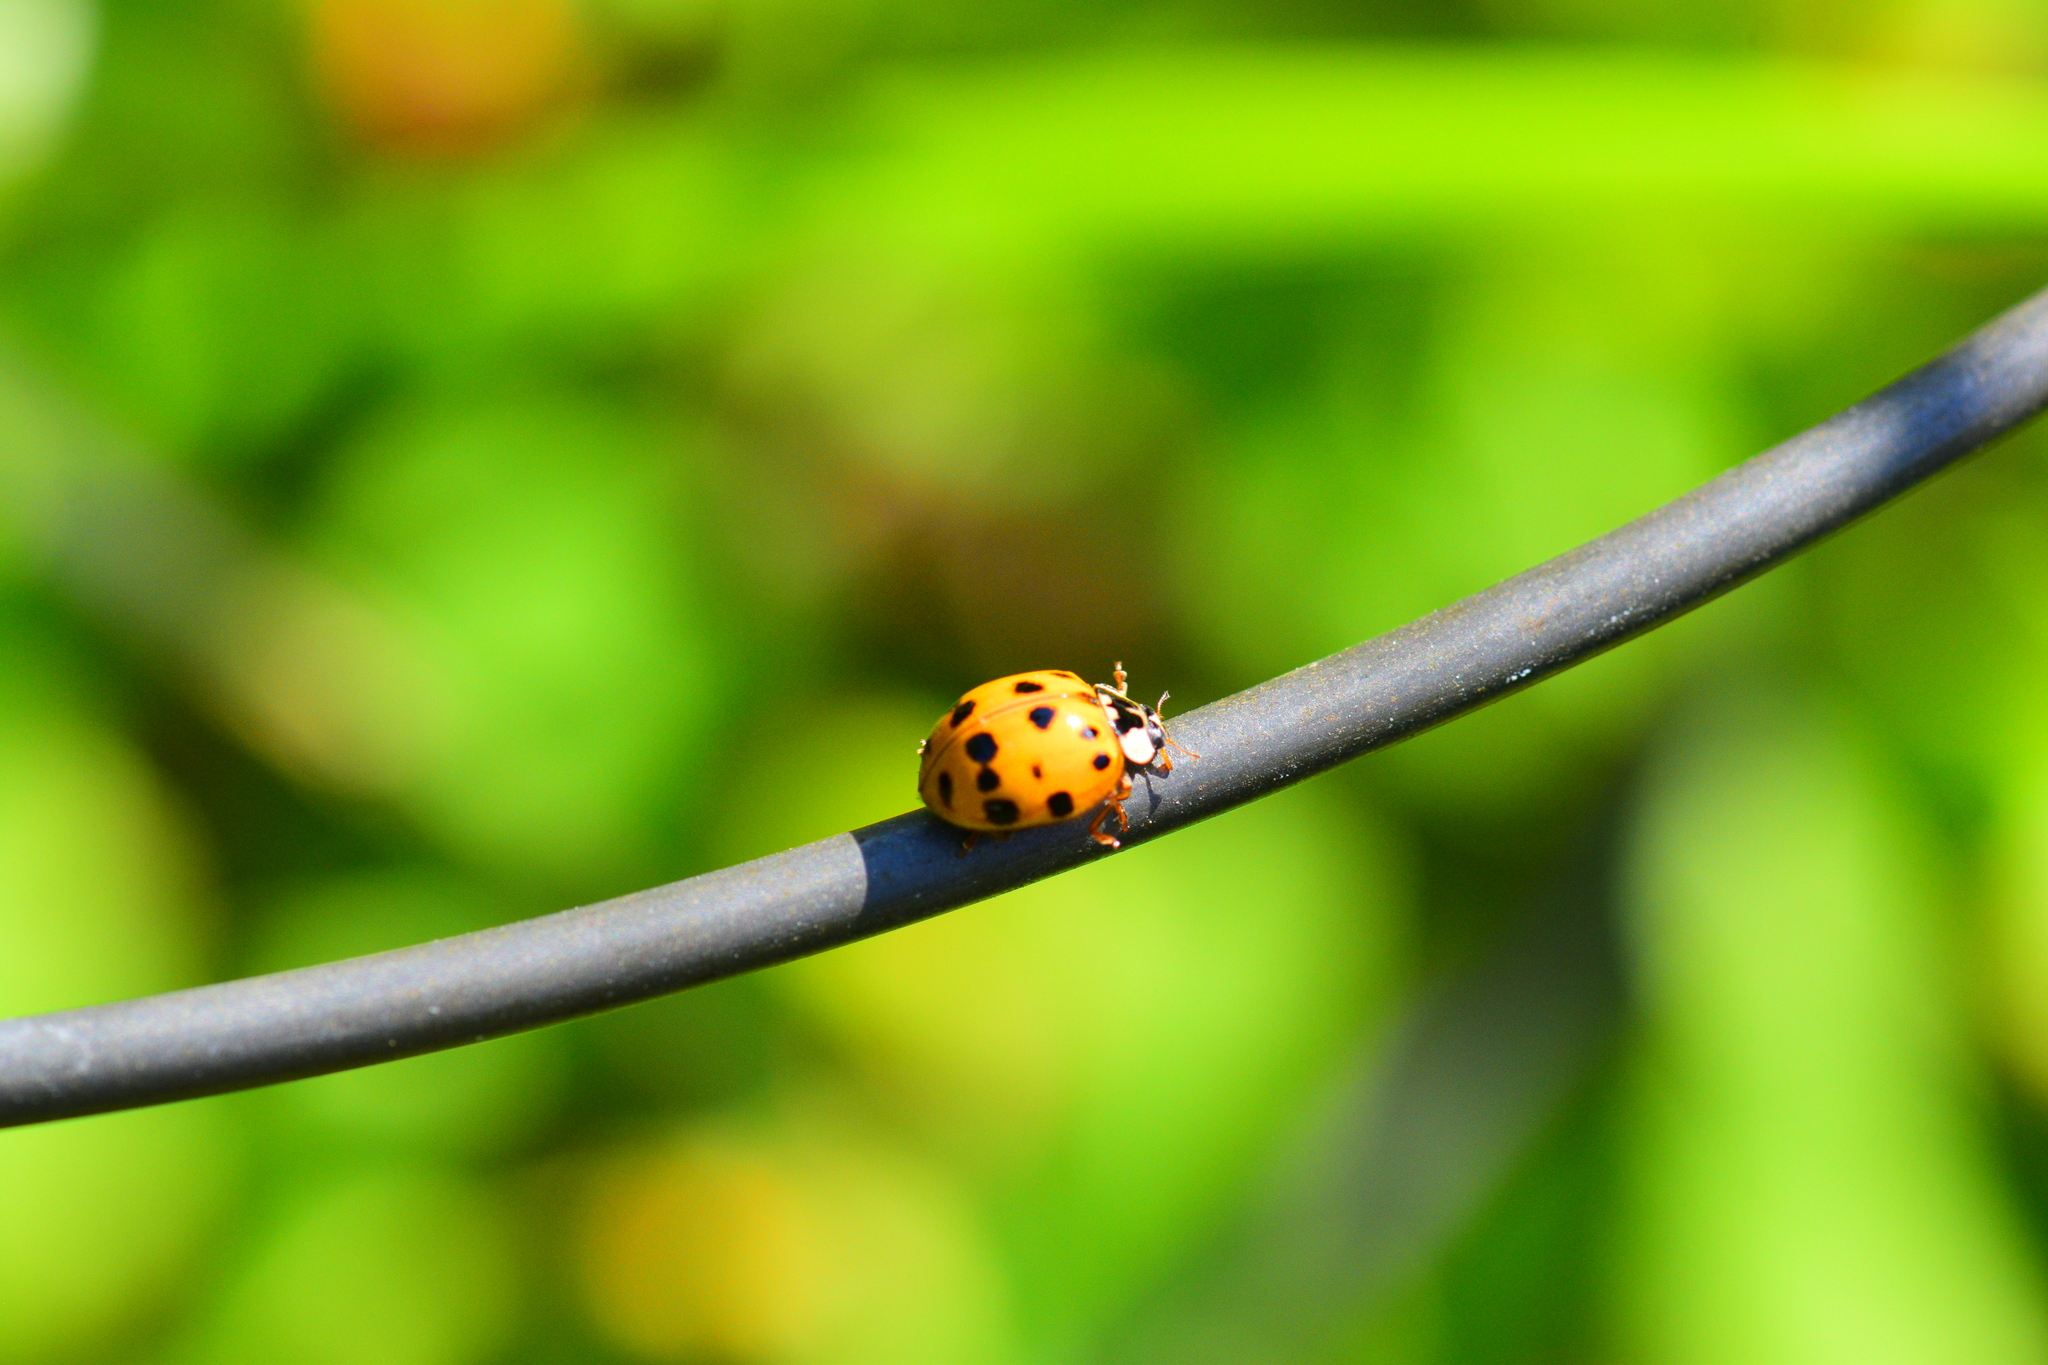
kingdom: Animalia
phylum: Arthropoda
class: Insecta
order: Coleoptera
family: Coccinellidae
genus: Harmonia
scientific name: Harmonia axyridis
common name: Harlequin ladybird
